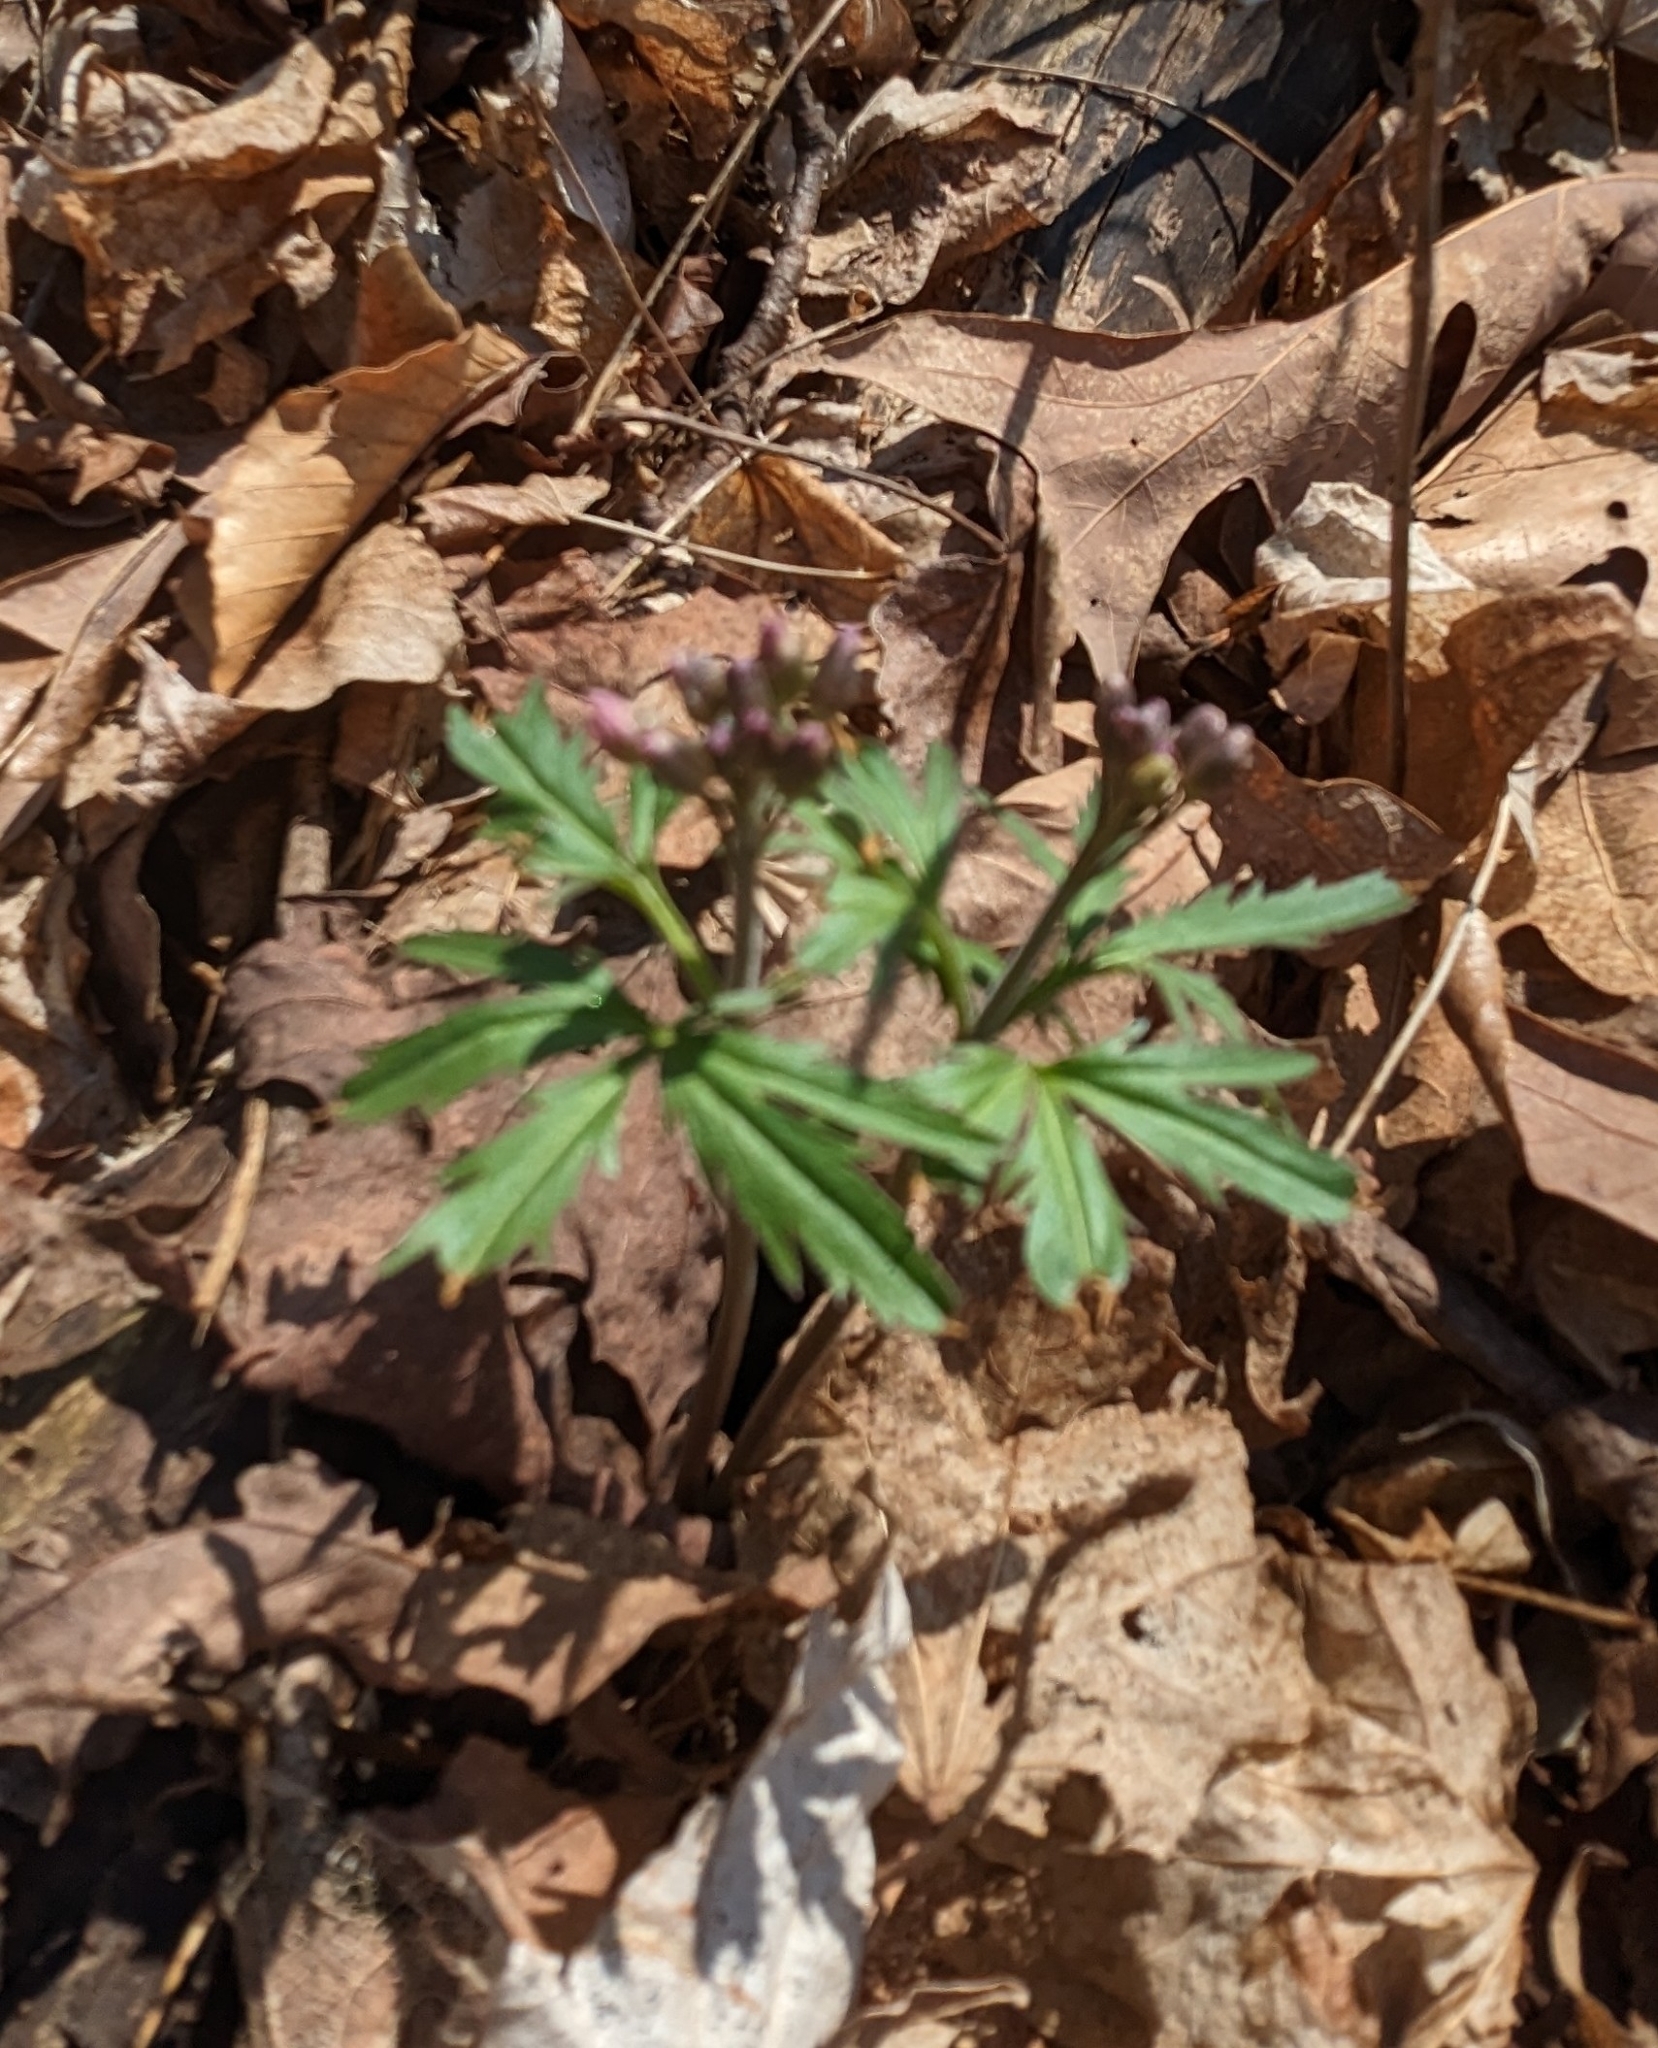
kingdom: Plantae
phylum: Tracheophyta
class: Magnoliopsida
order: Brassicales
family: Brassicaceae
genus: Cardamine
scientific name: Cardamine concatenata
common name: Cut-leaf toothcup
